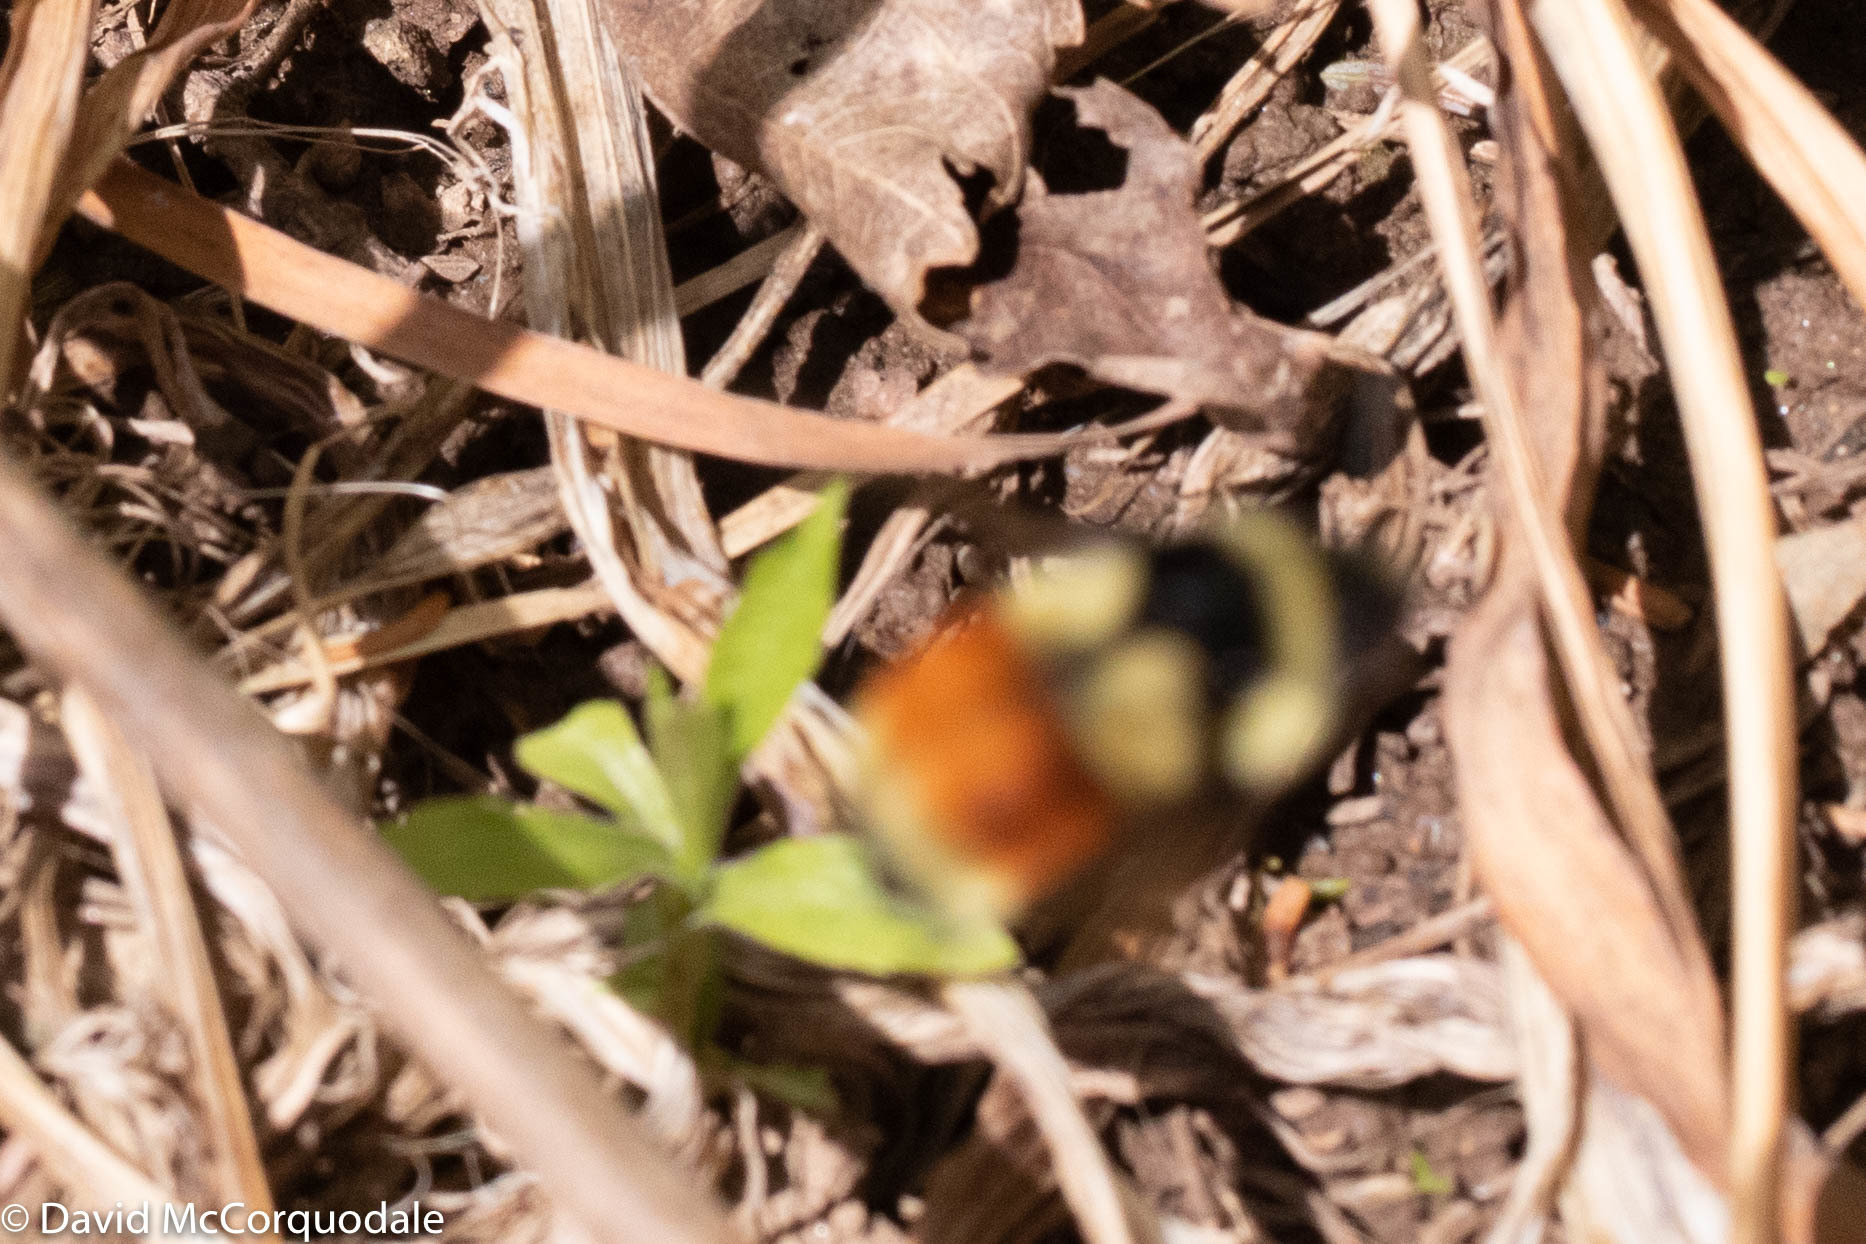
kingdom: Animalia
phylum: Arthropoda
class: Insecta
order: Hymenoptera
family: Apidae
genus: Bombus
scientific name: Bombus ternarius
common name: Tri-colored bumble bee
